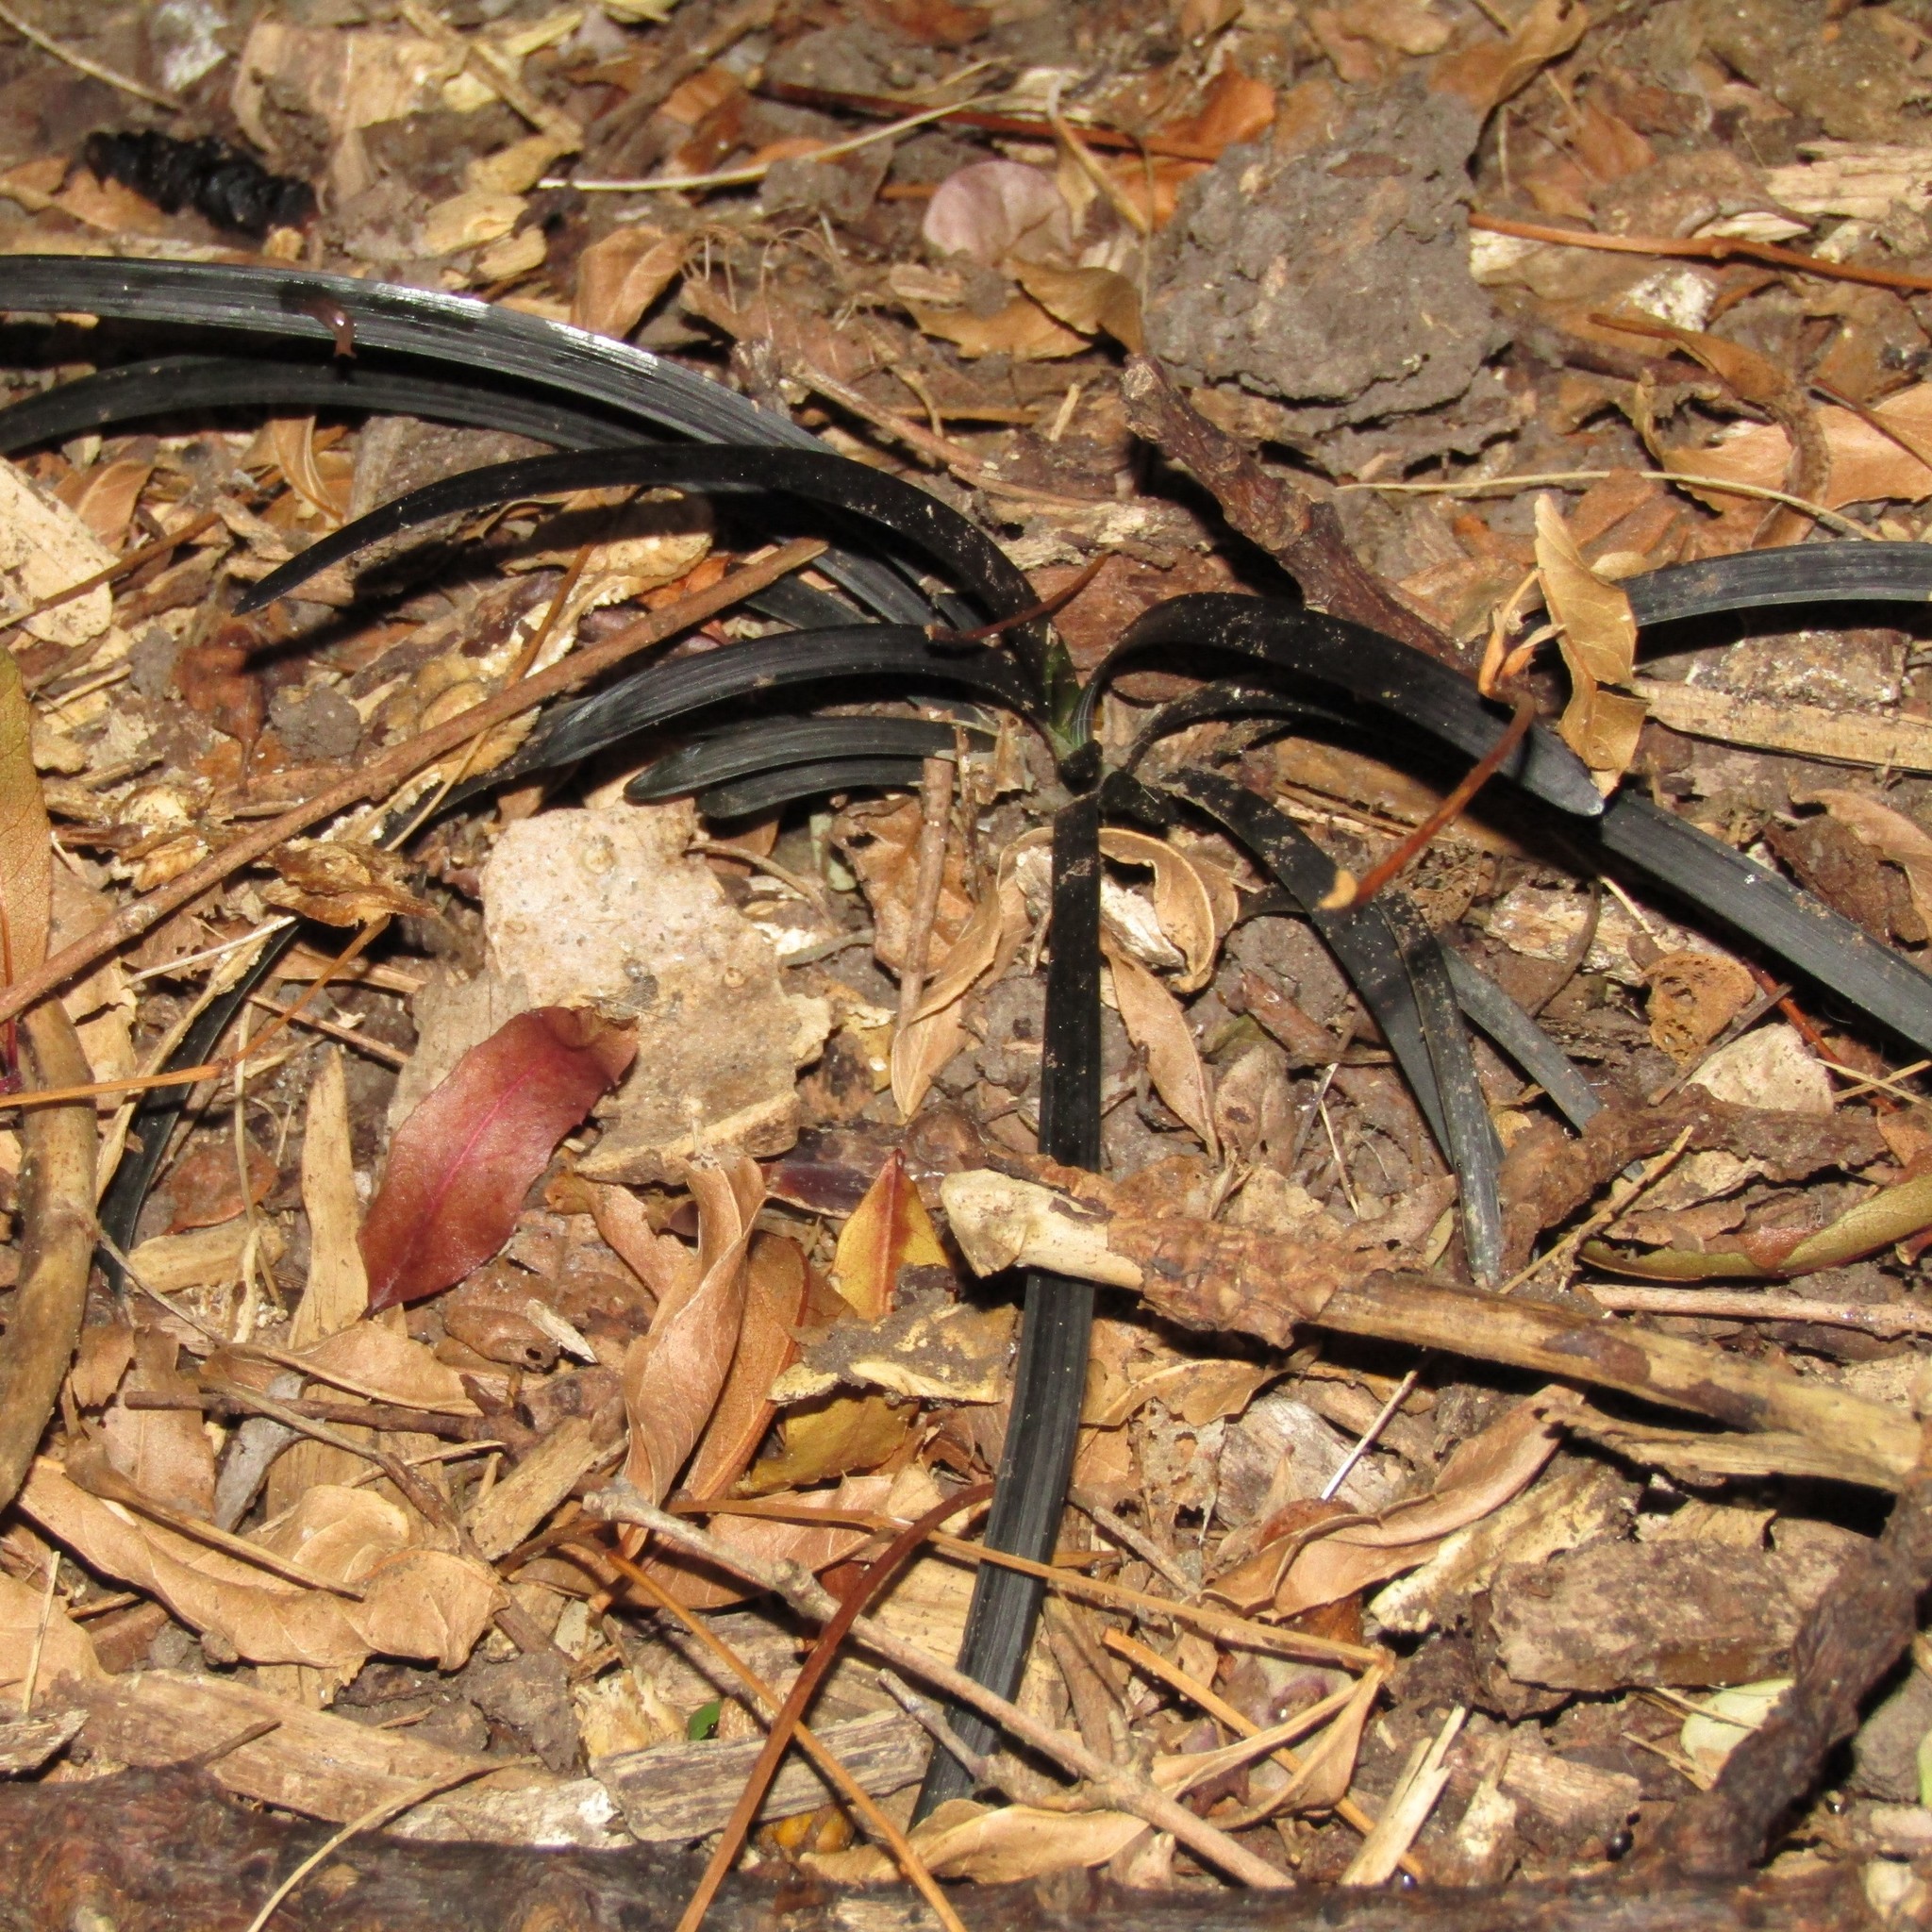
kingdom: Plantae
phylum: Tracheophyta
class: Liliopsida
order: Asparagales
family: Asparagaceae
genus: Ophiopogon
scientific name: Ophiopogon planiscapus
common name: Black mondo
